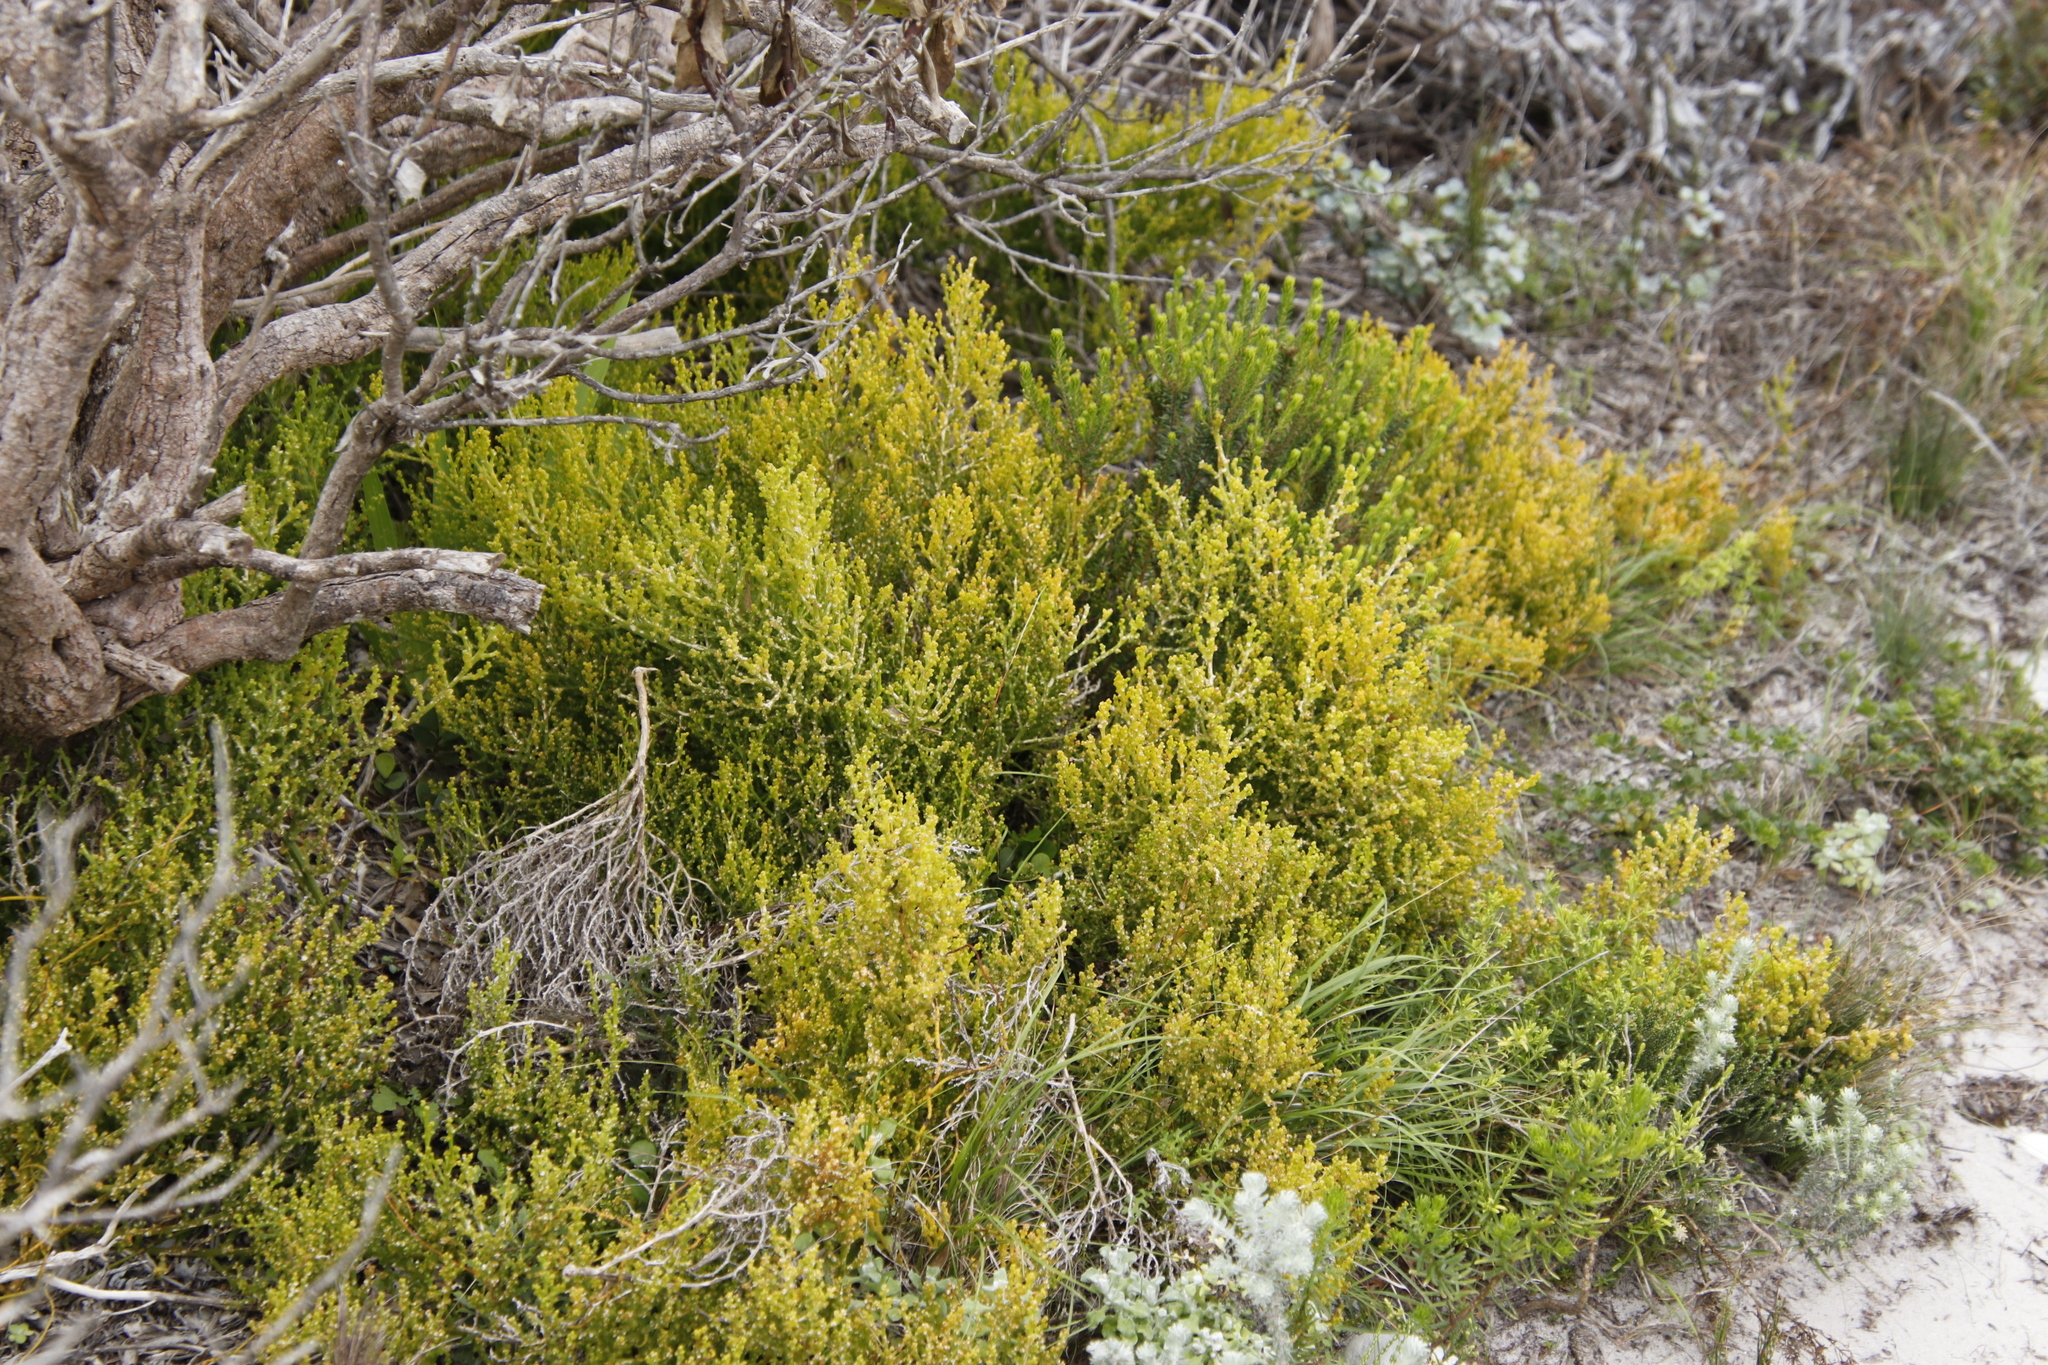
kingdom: Plantae
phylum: Tracheophyta
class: Magnoliopsida
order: Santalales
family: Thesiaceae
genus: Thesium
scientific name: Thesium commutatum
